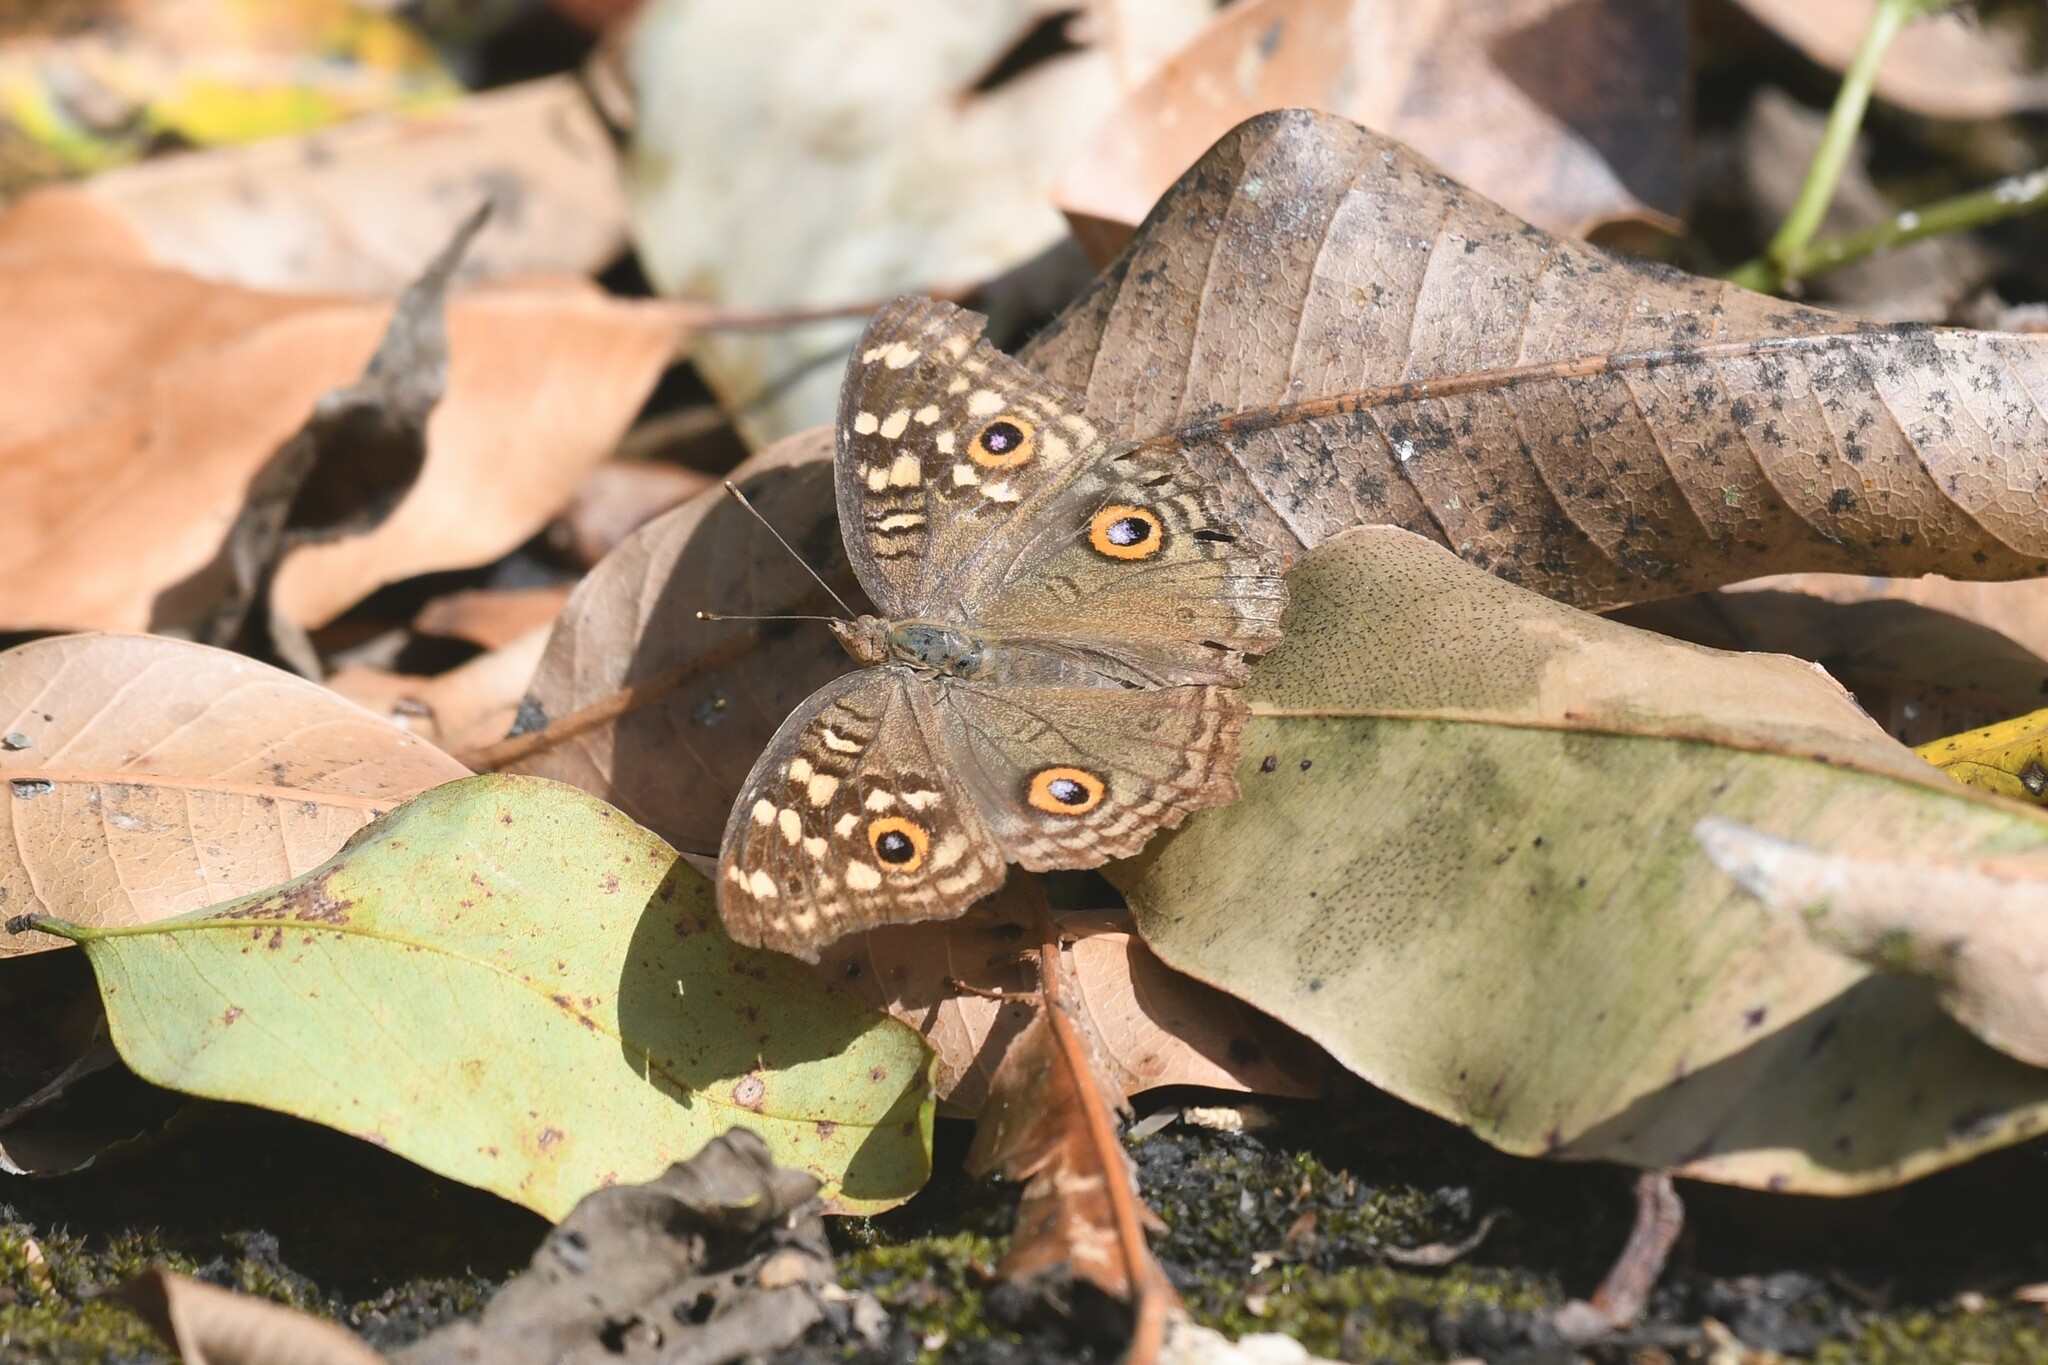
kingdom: Animalia
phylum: Arthropoda
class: Insecta
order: Lepidoptera
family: Nymphalidae
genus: Junonia
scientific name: Junonia lemonias
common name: Lemon pansy
